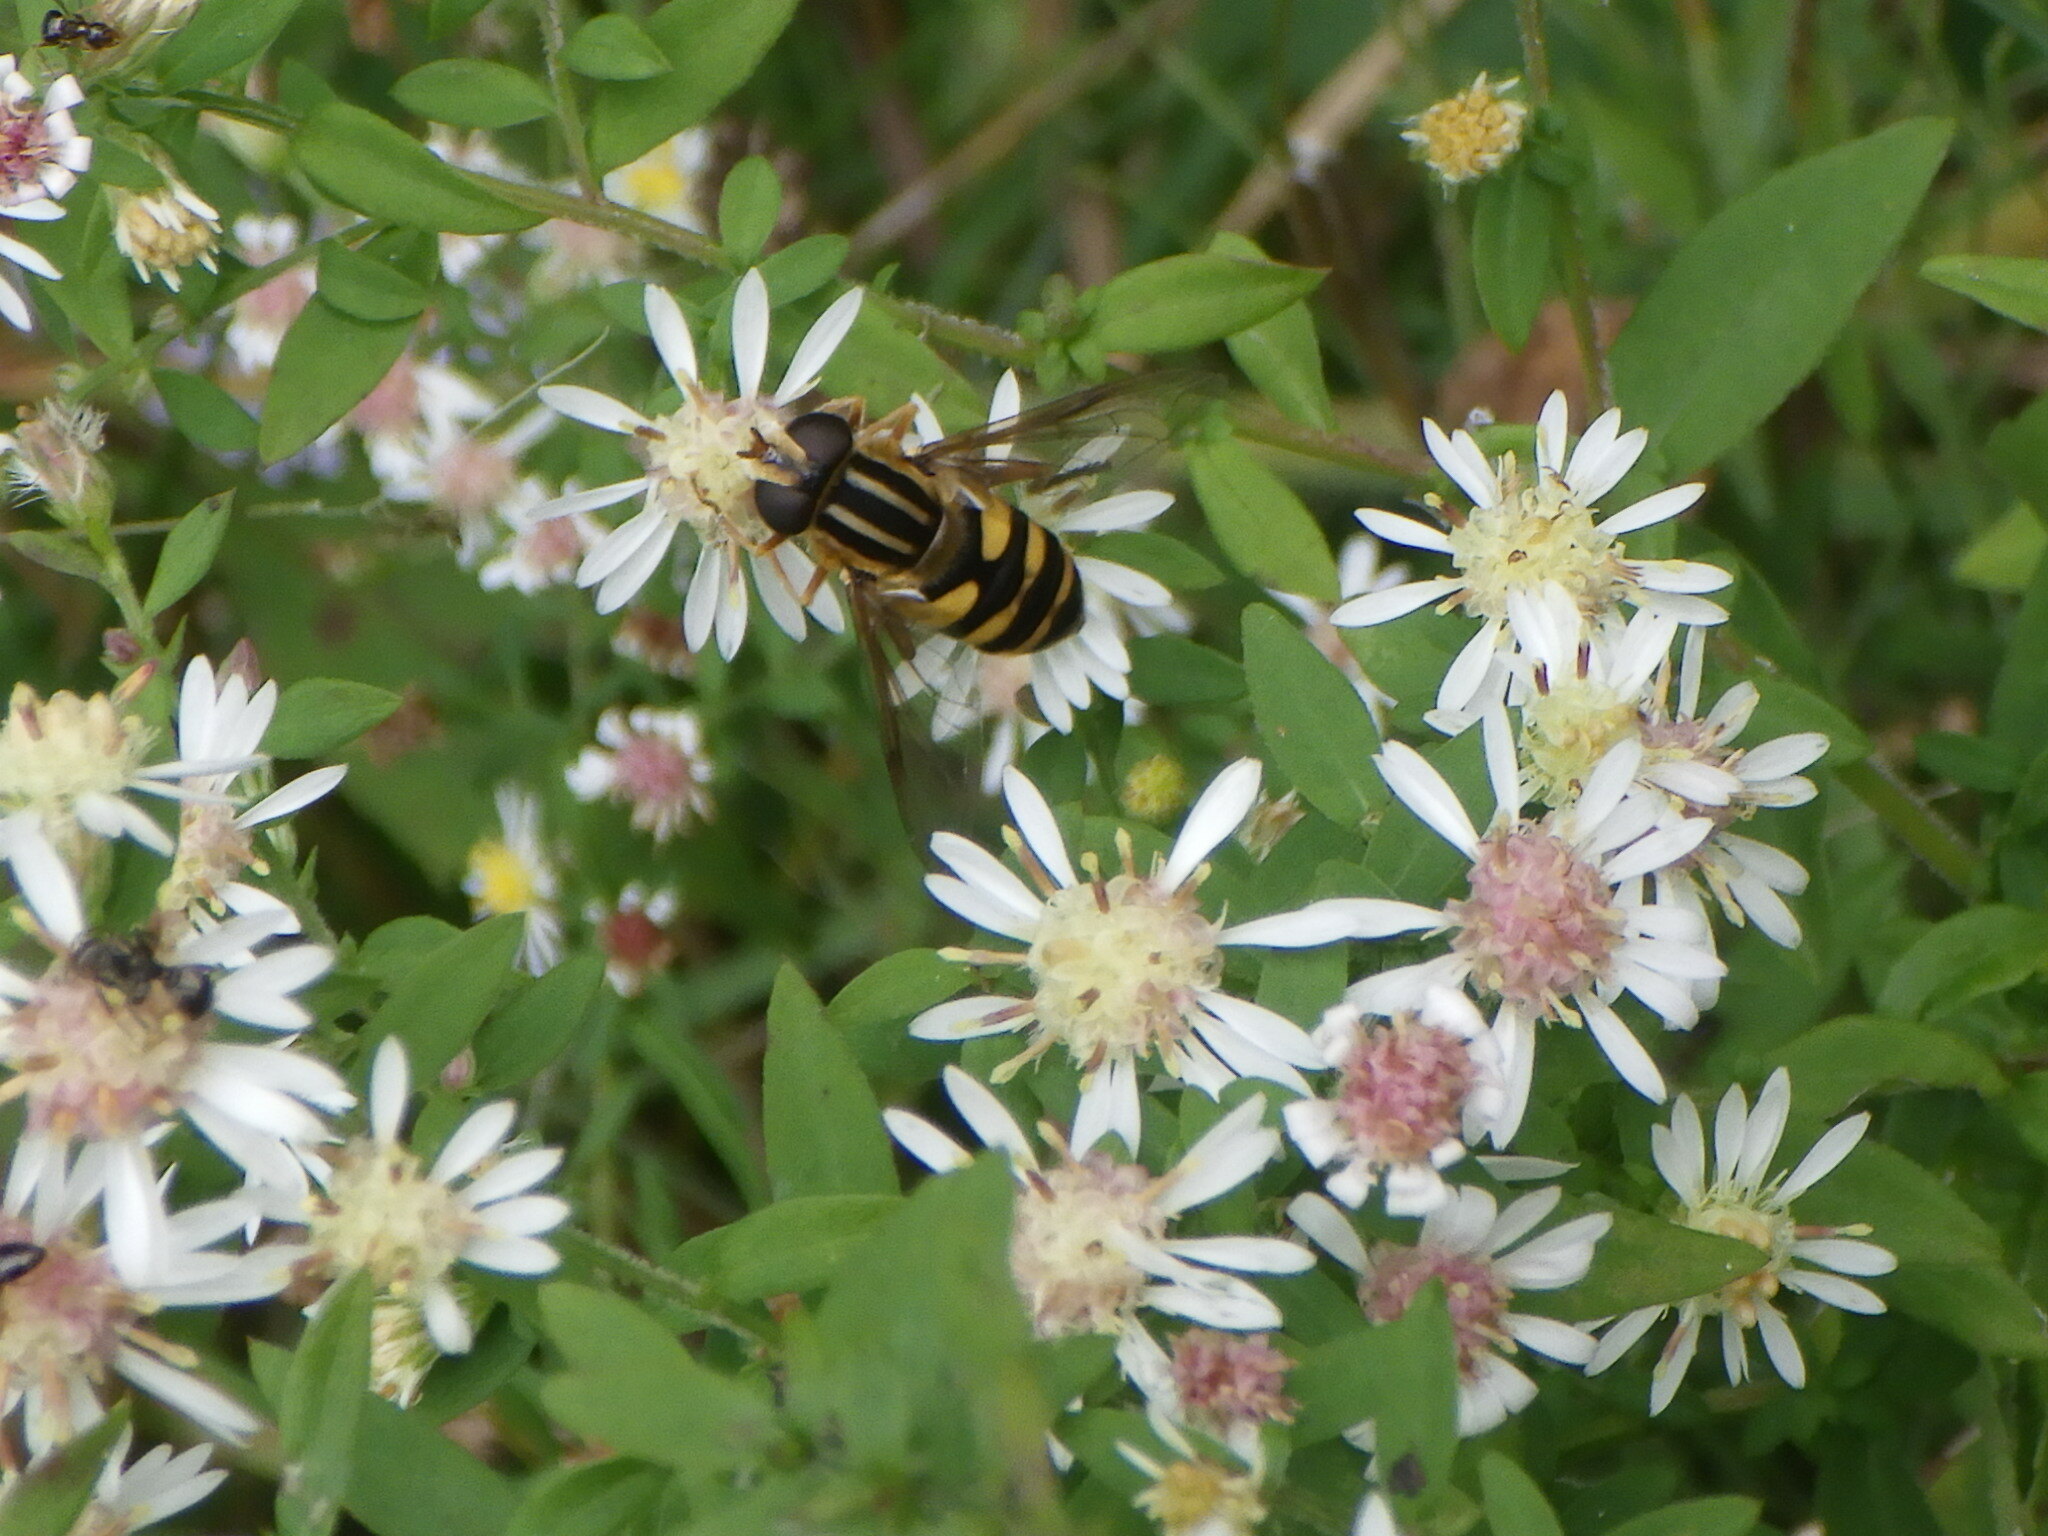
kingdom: Animalia
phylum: Arthropoda
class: Insecta
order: Diptera
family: Syrphidae
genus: Helophilus
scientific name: Helophilus fasciatus
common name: Narrow-headed marsh fly
